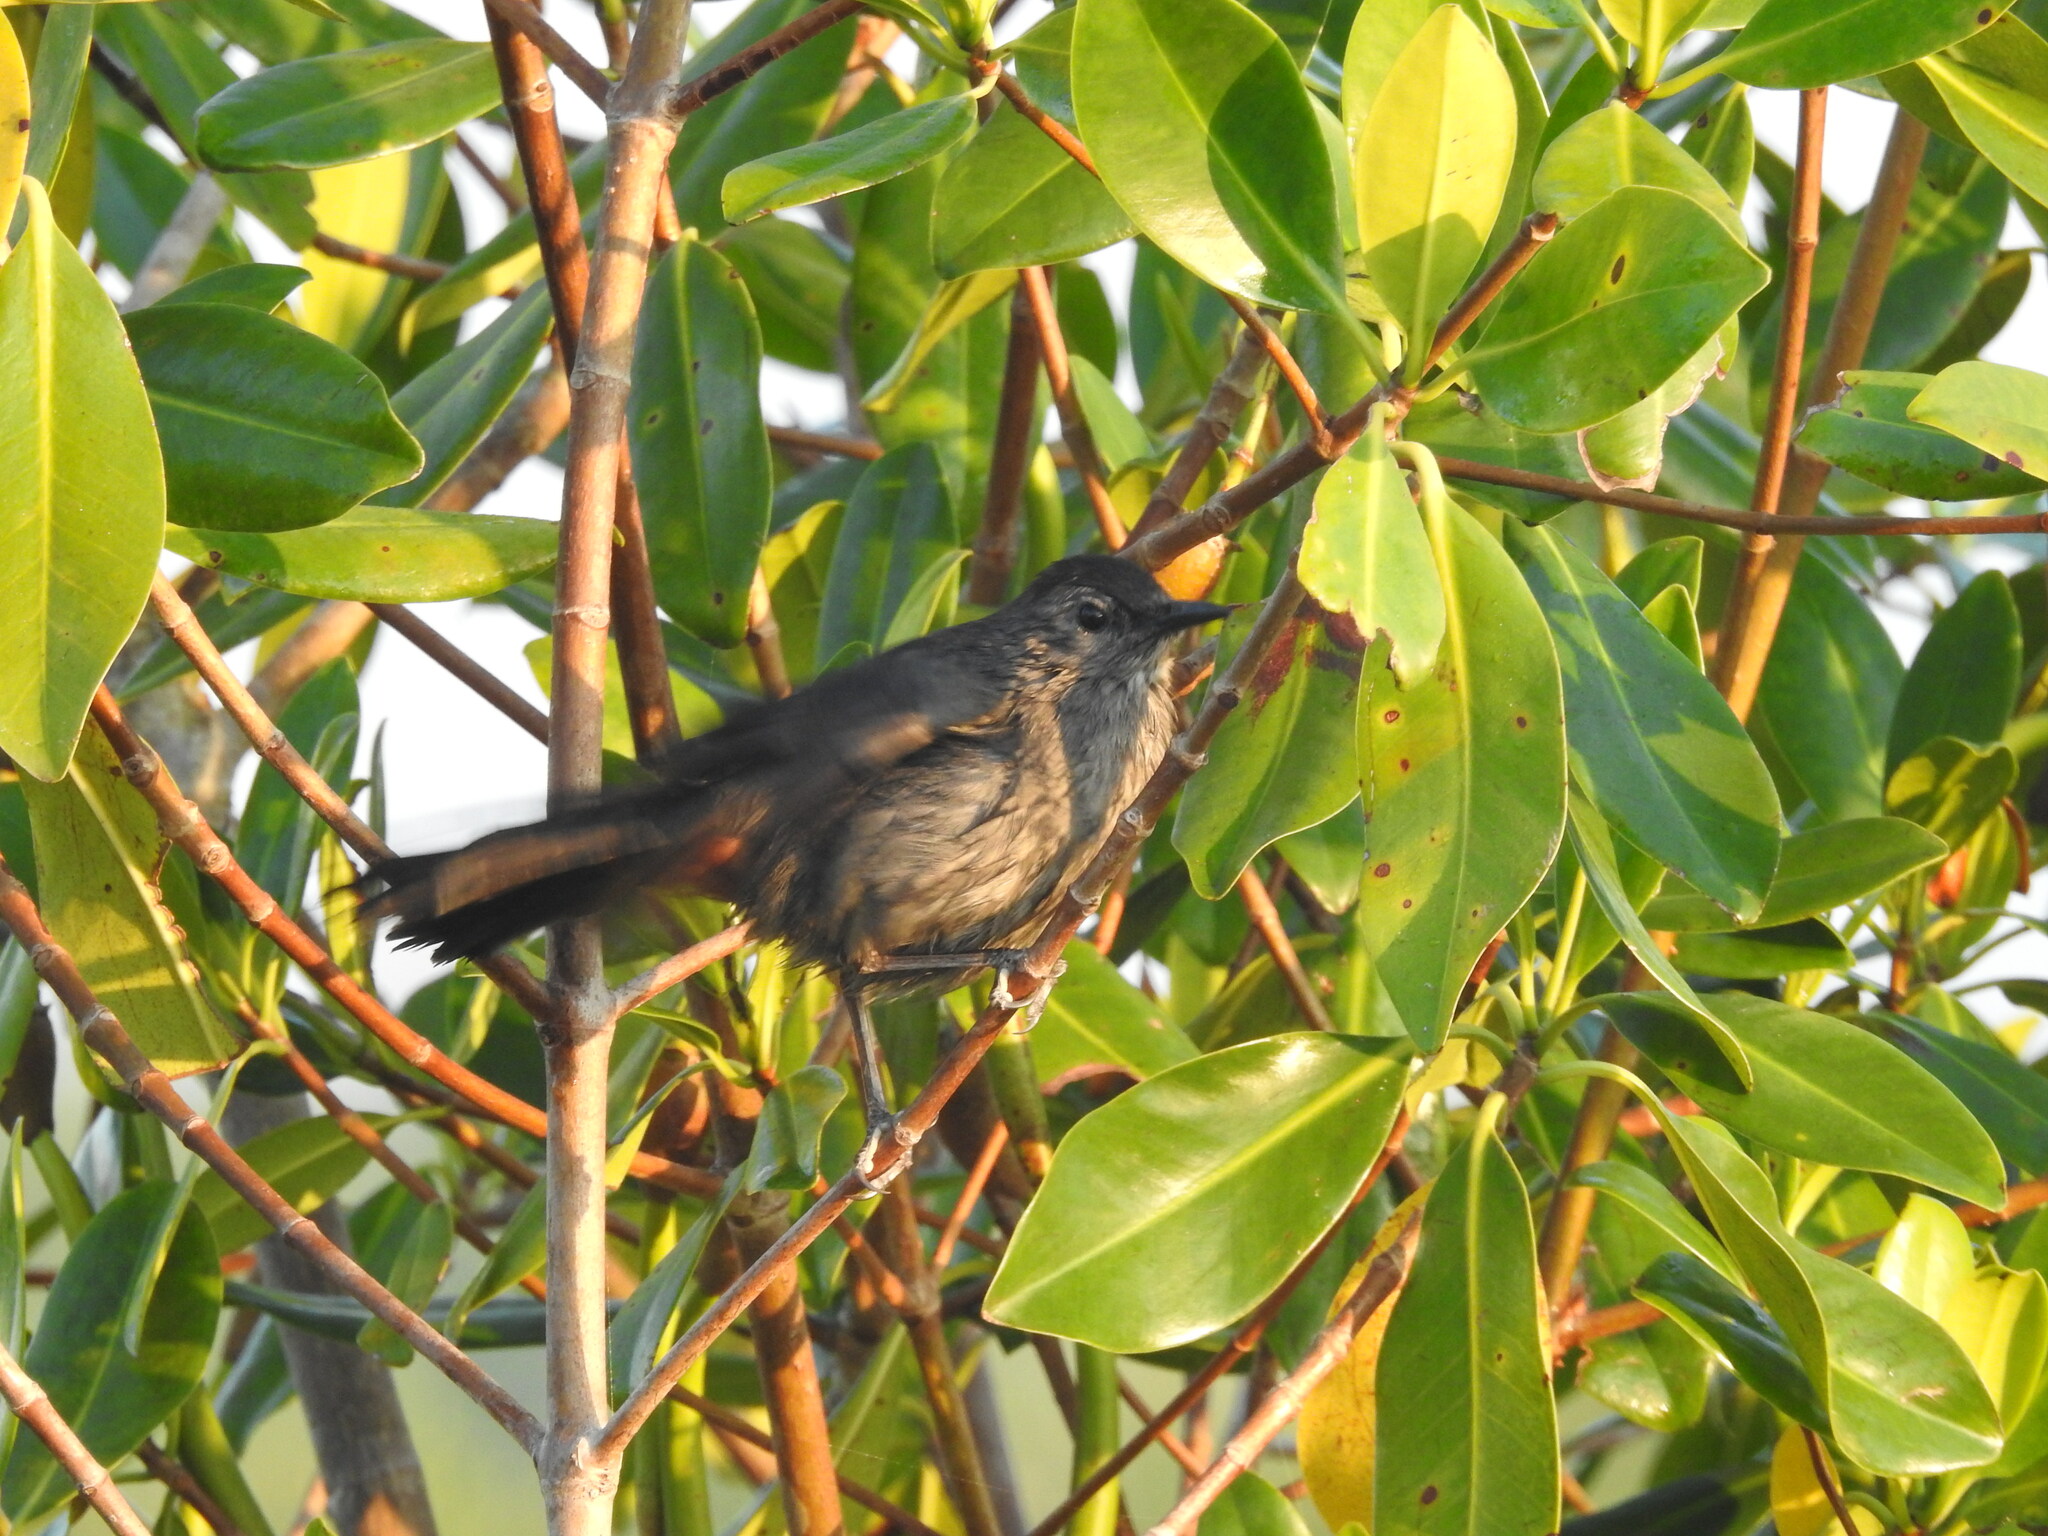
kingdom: Animalia
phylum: Chordata
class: Aves
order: Passeriformes
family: Mimidae
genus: Dumetella
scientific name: Dumetella carolinensis
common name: Gray catbird
